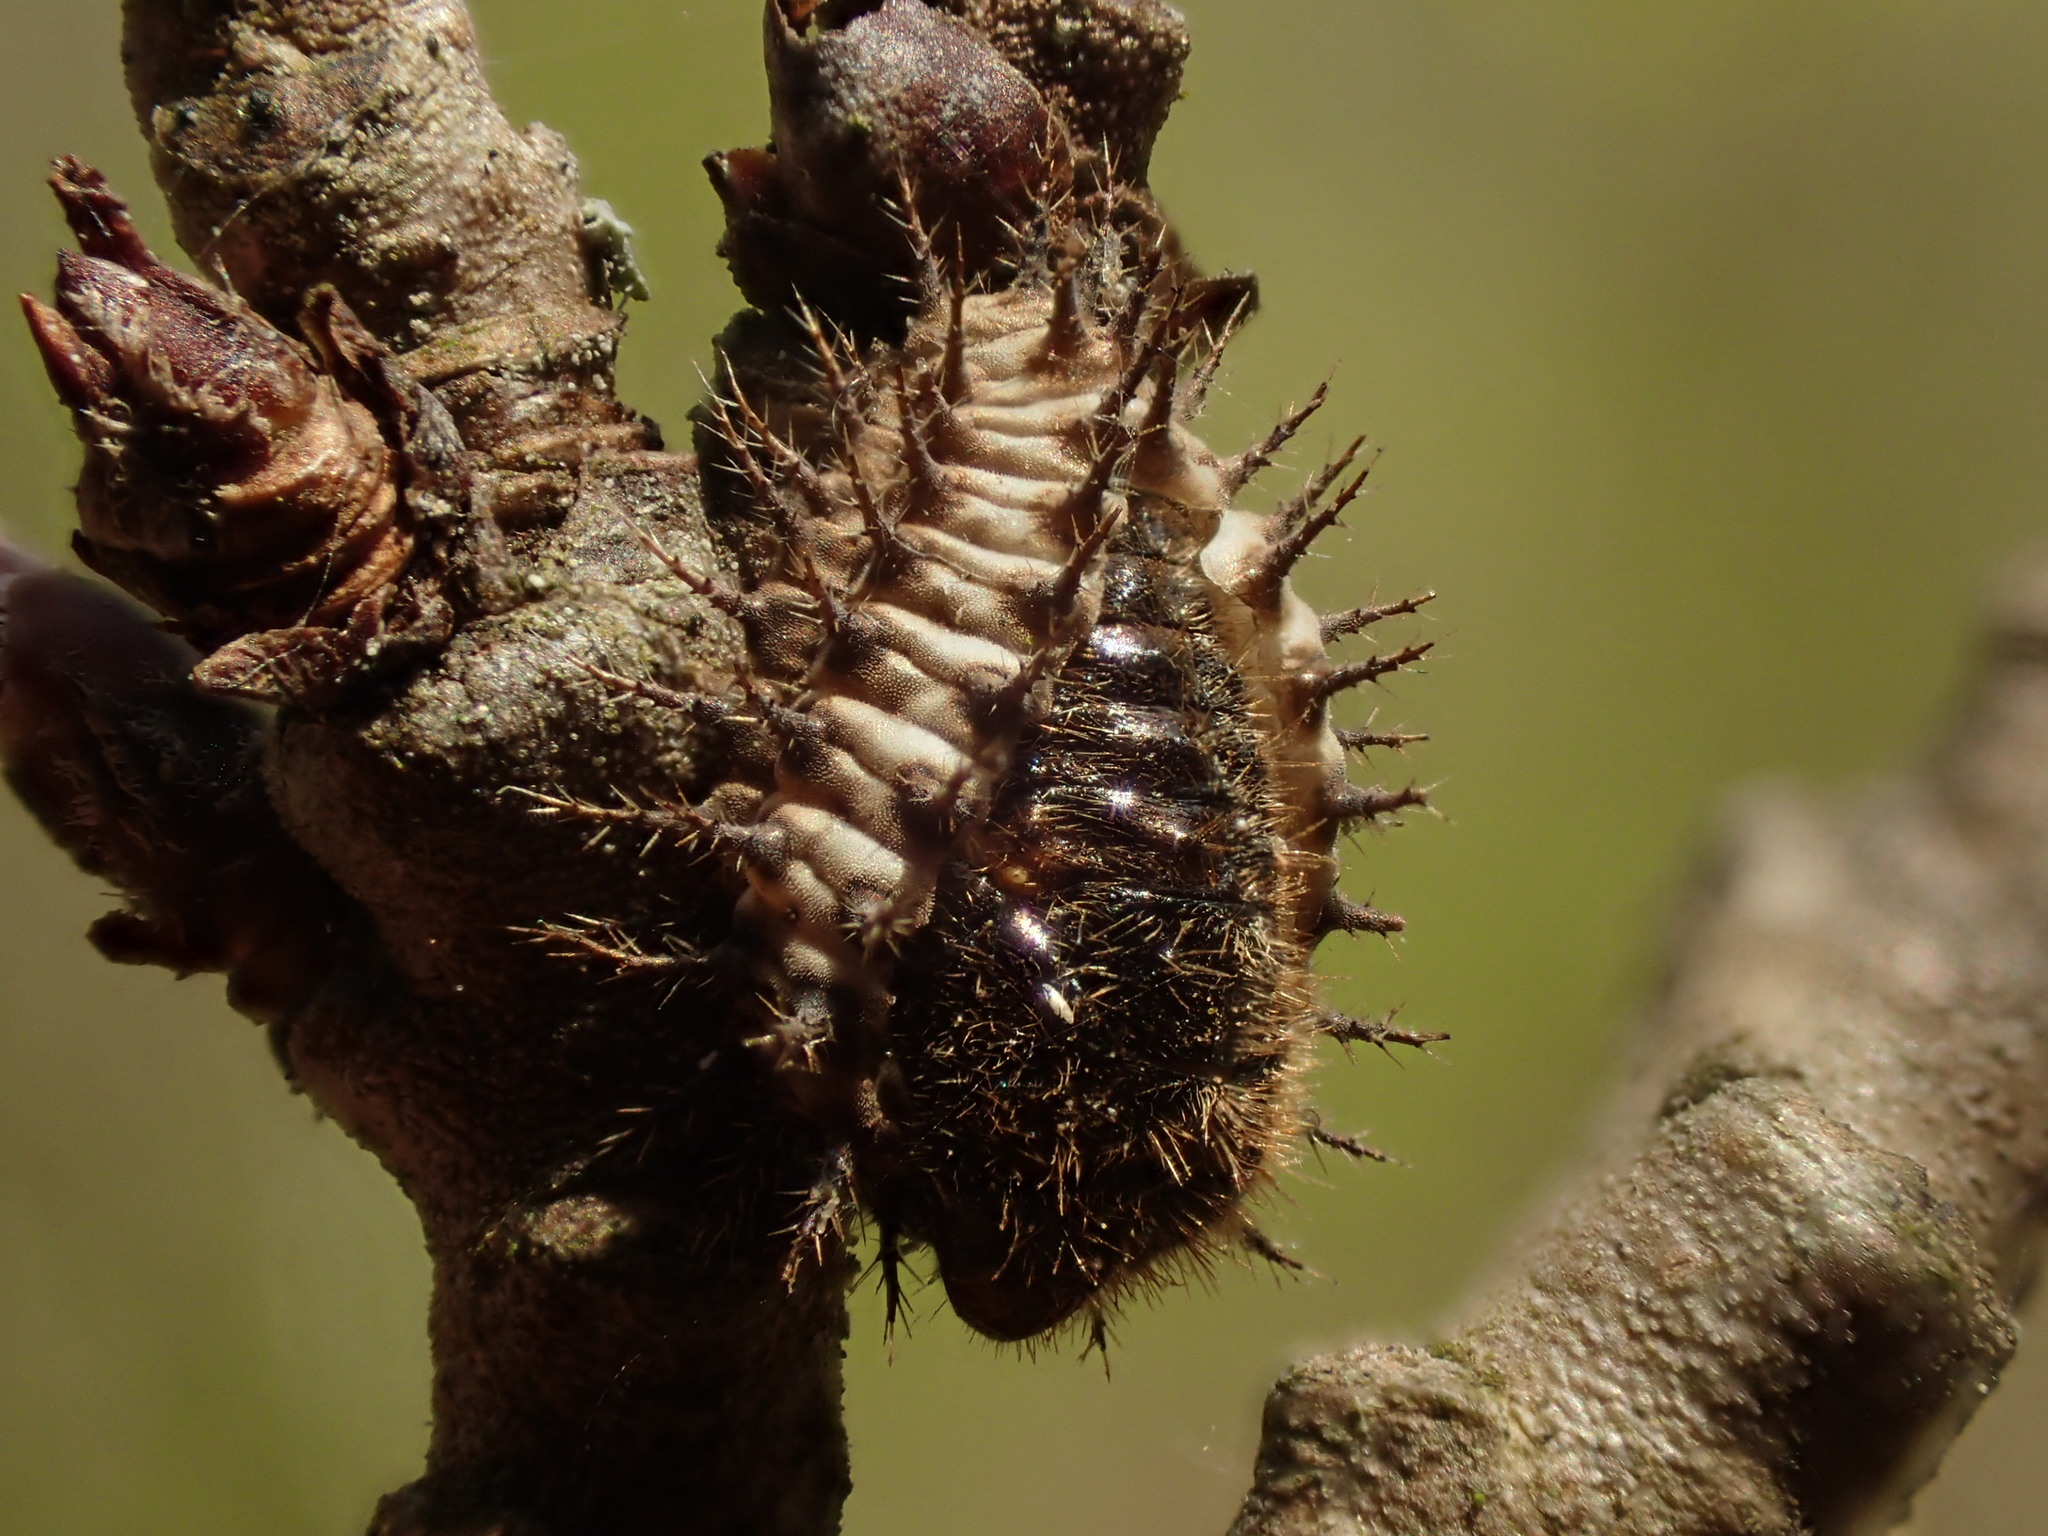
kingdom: Animalia
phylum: Arthropoda
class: Insecta
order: Coleoptera
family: Coccinellidae
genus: Chilocorus
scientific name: Chilocorus renipustulatus
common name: Kidney-spot ladybird
